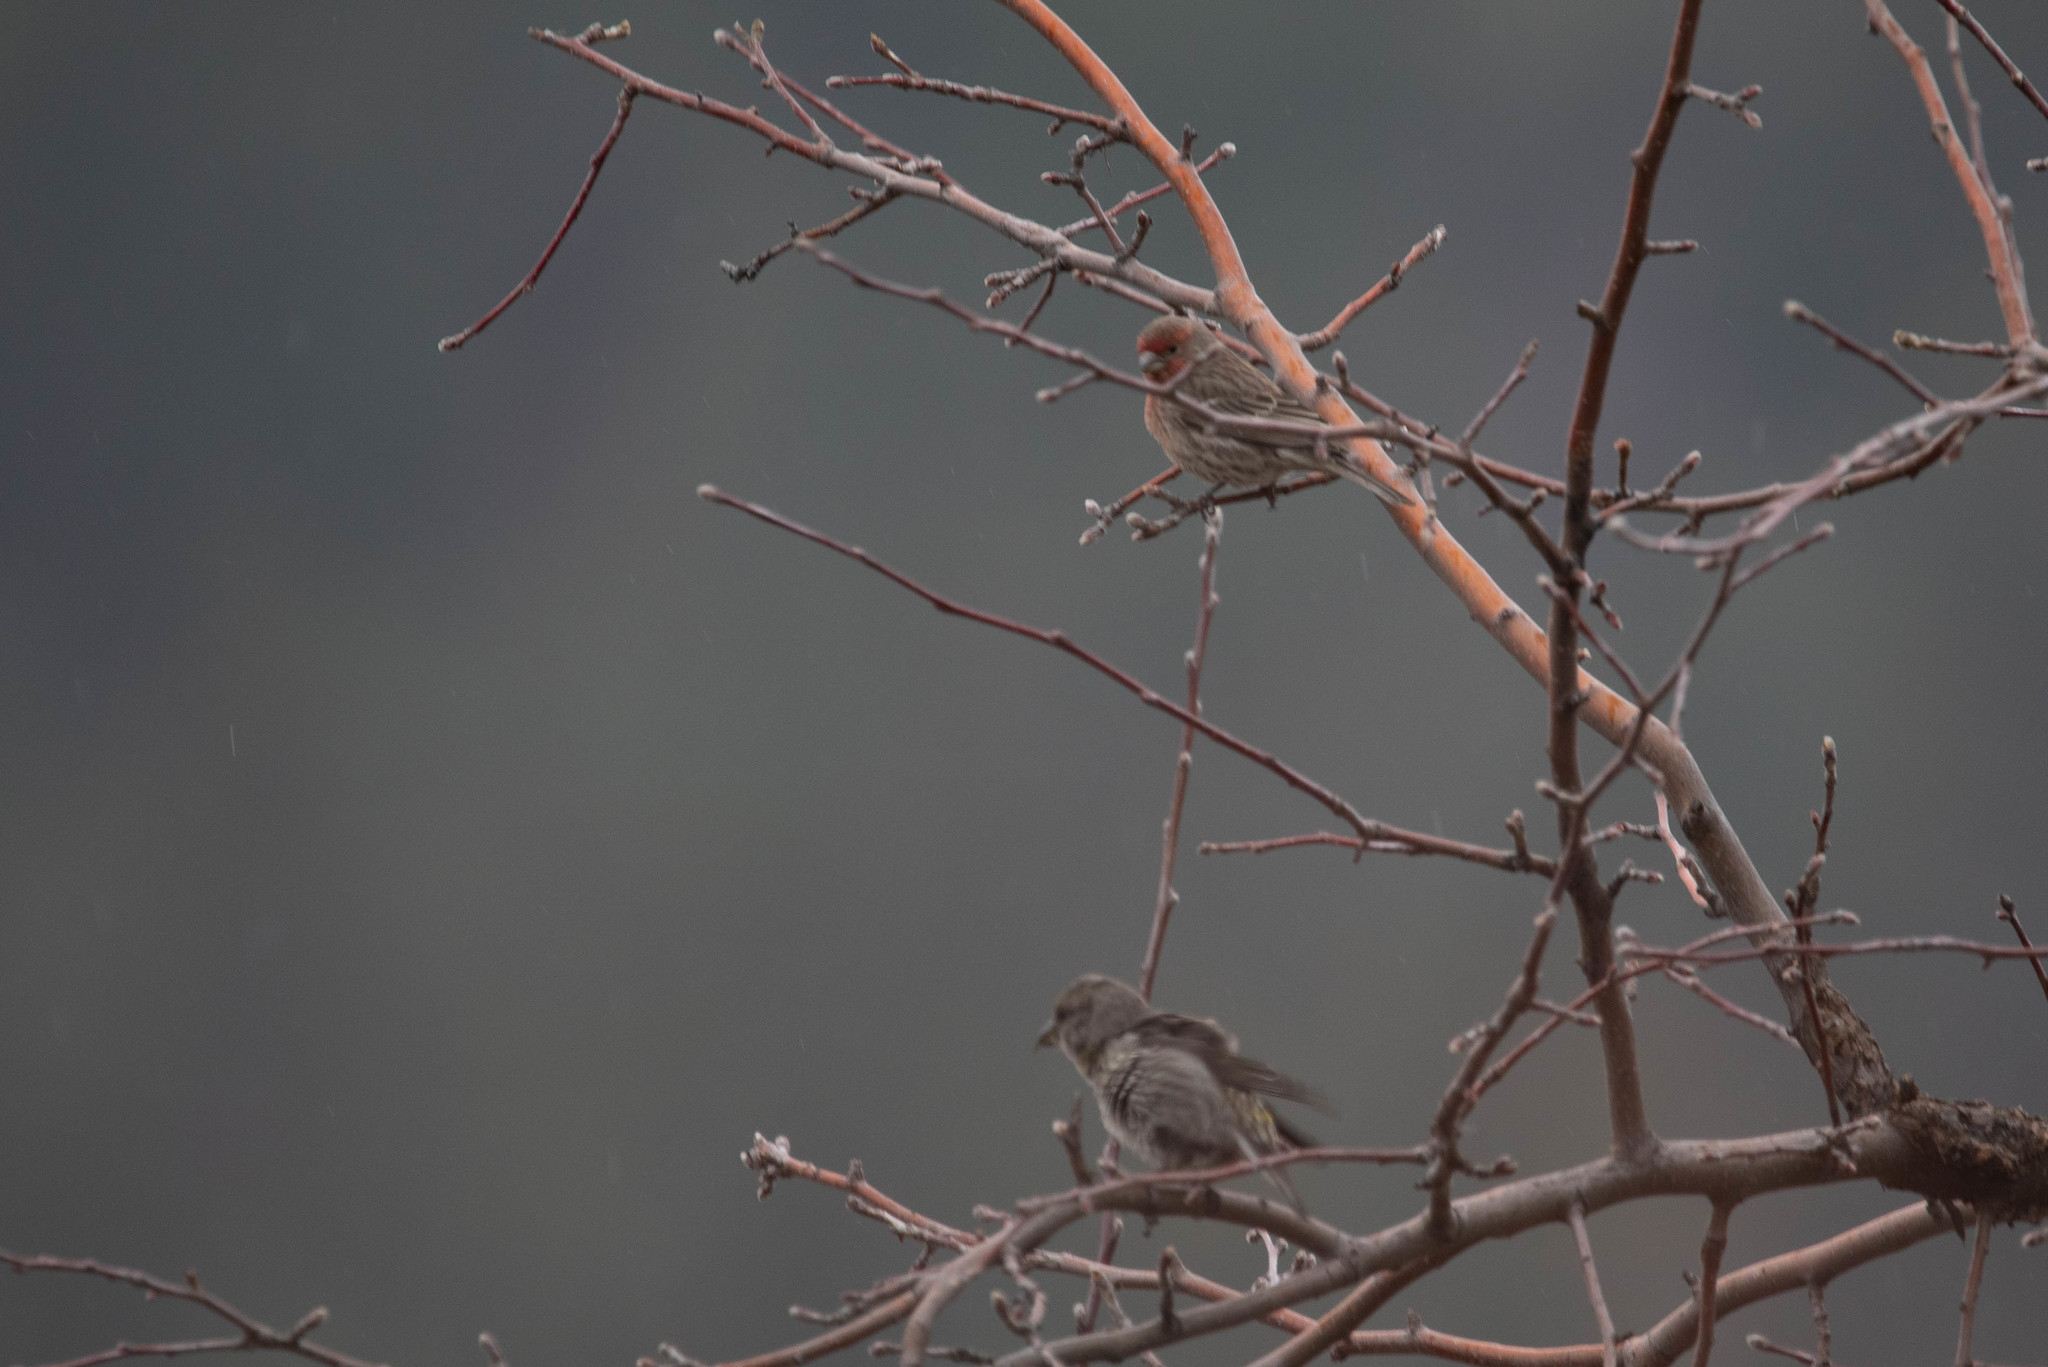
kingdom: Animalia
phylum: Chordata
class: Aves
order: Passeriformes
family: Fringillidae
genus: Haemorhous
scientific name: Haemorhous mexicanus
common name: House finch
